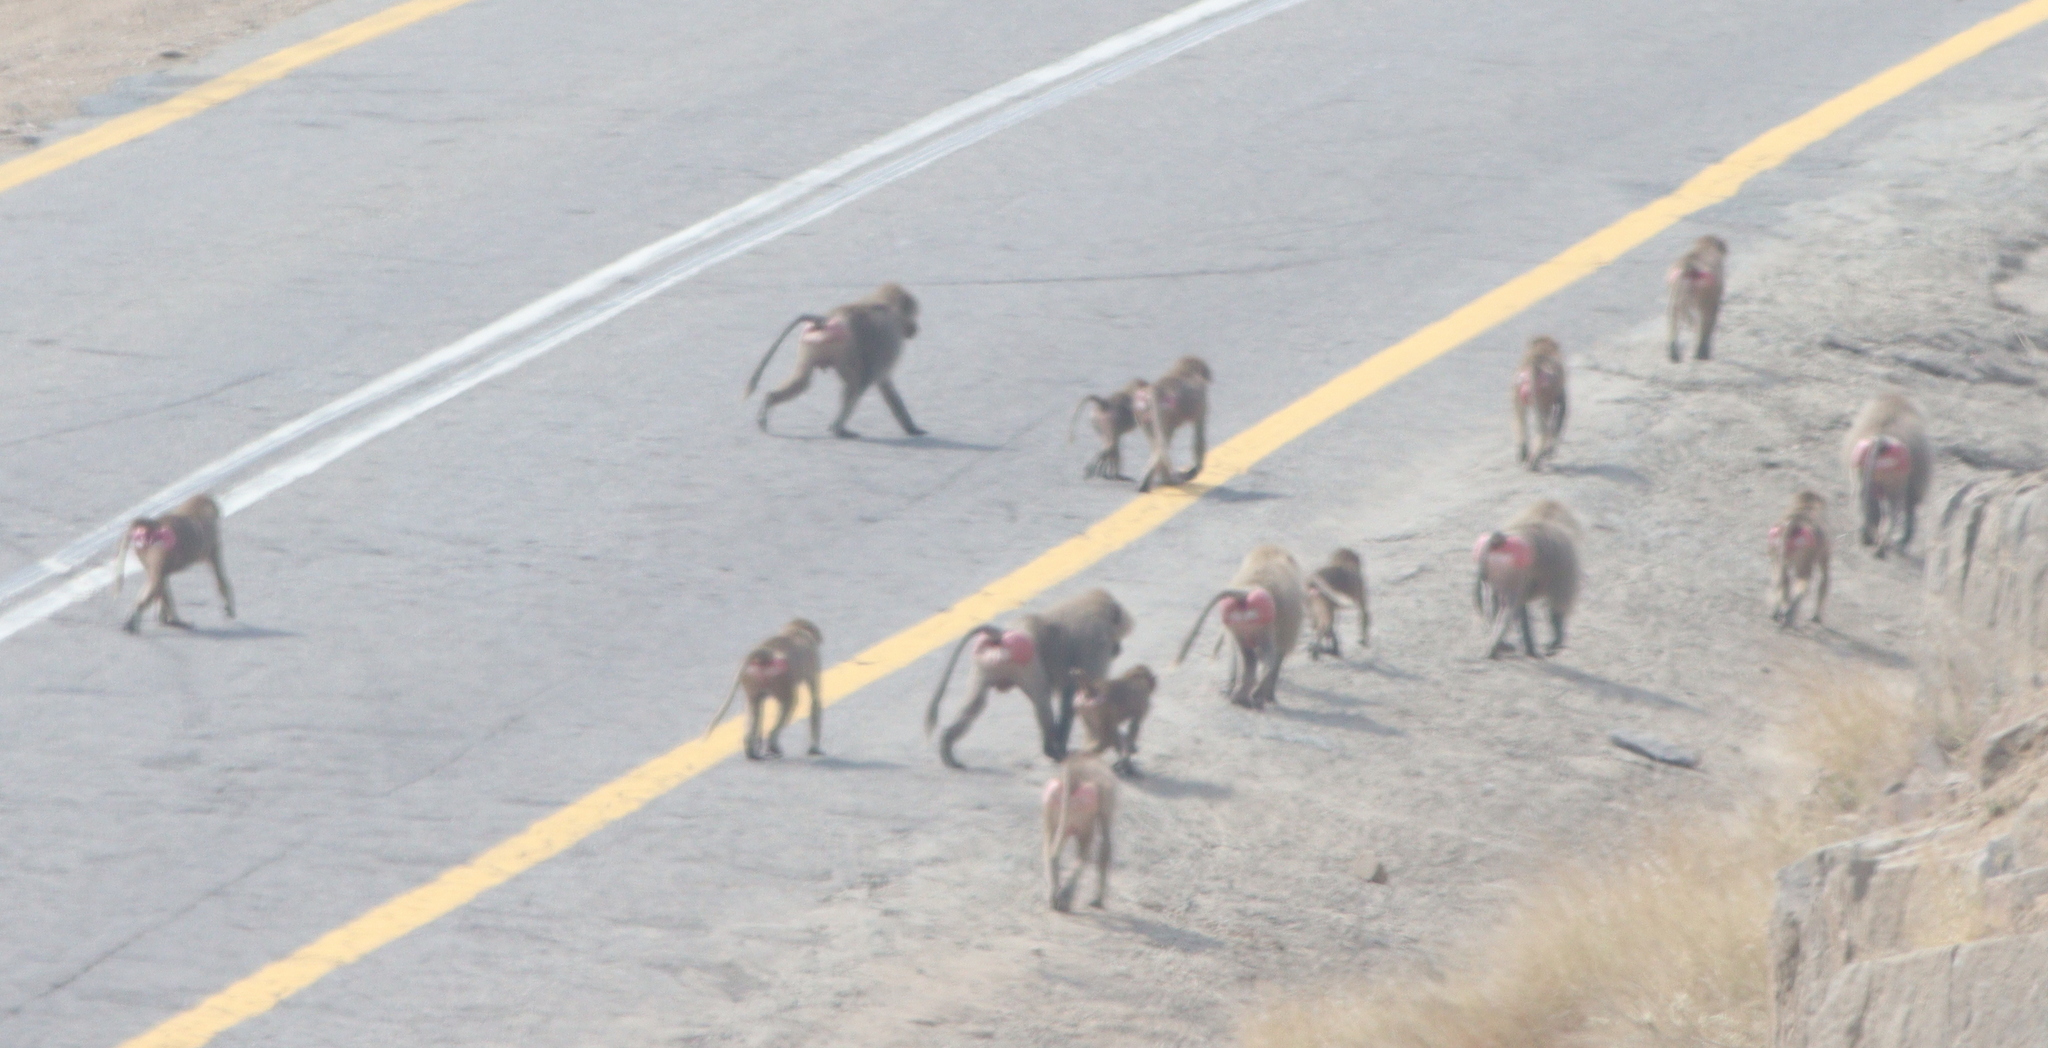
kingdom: Animalia
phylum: Chordata
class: Mammalia
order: Primates
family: Cercopithecidae
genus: Papio
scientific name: Papio hamadryas
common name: Hamadryas baboon
